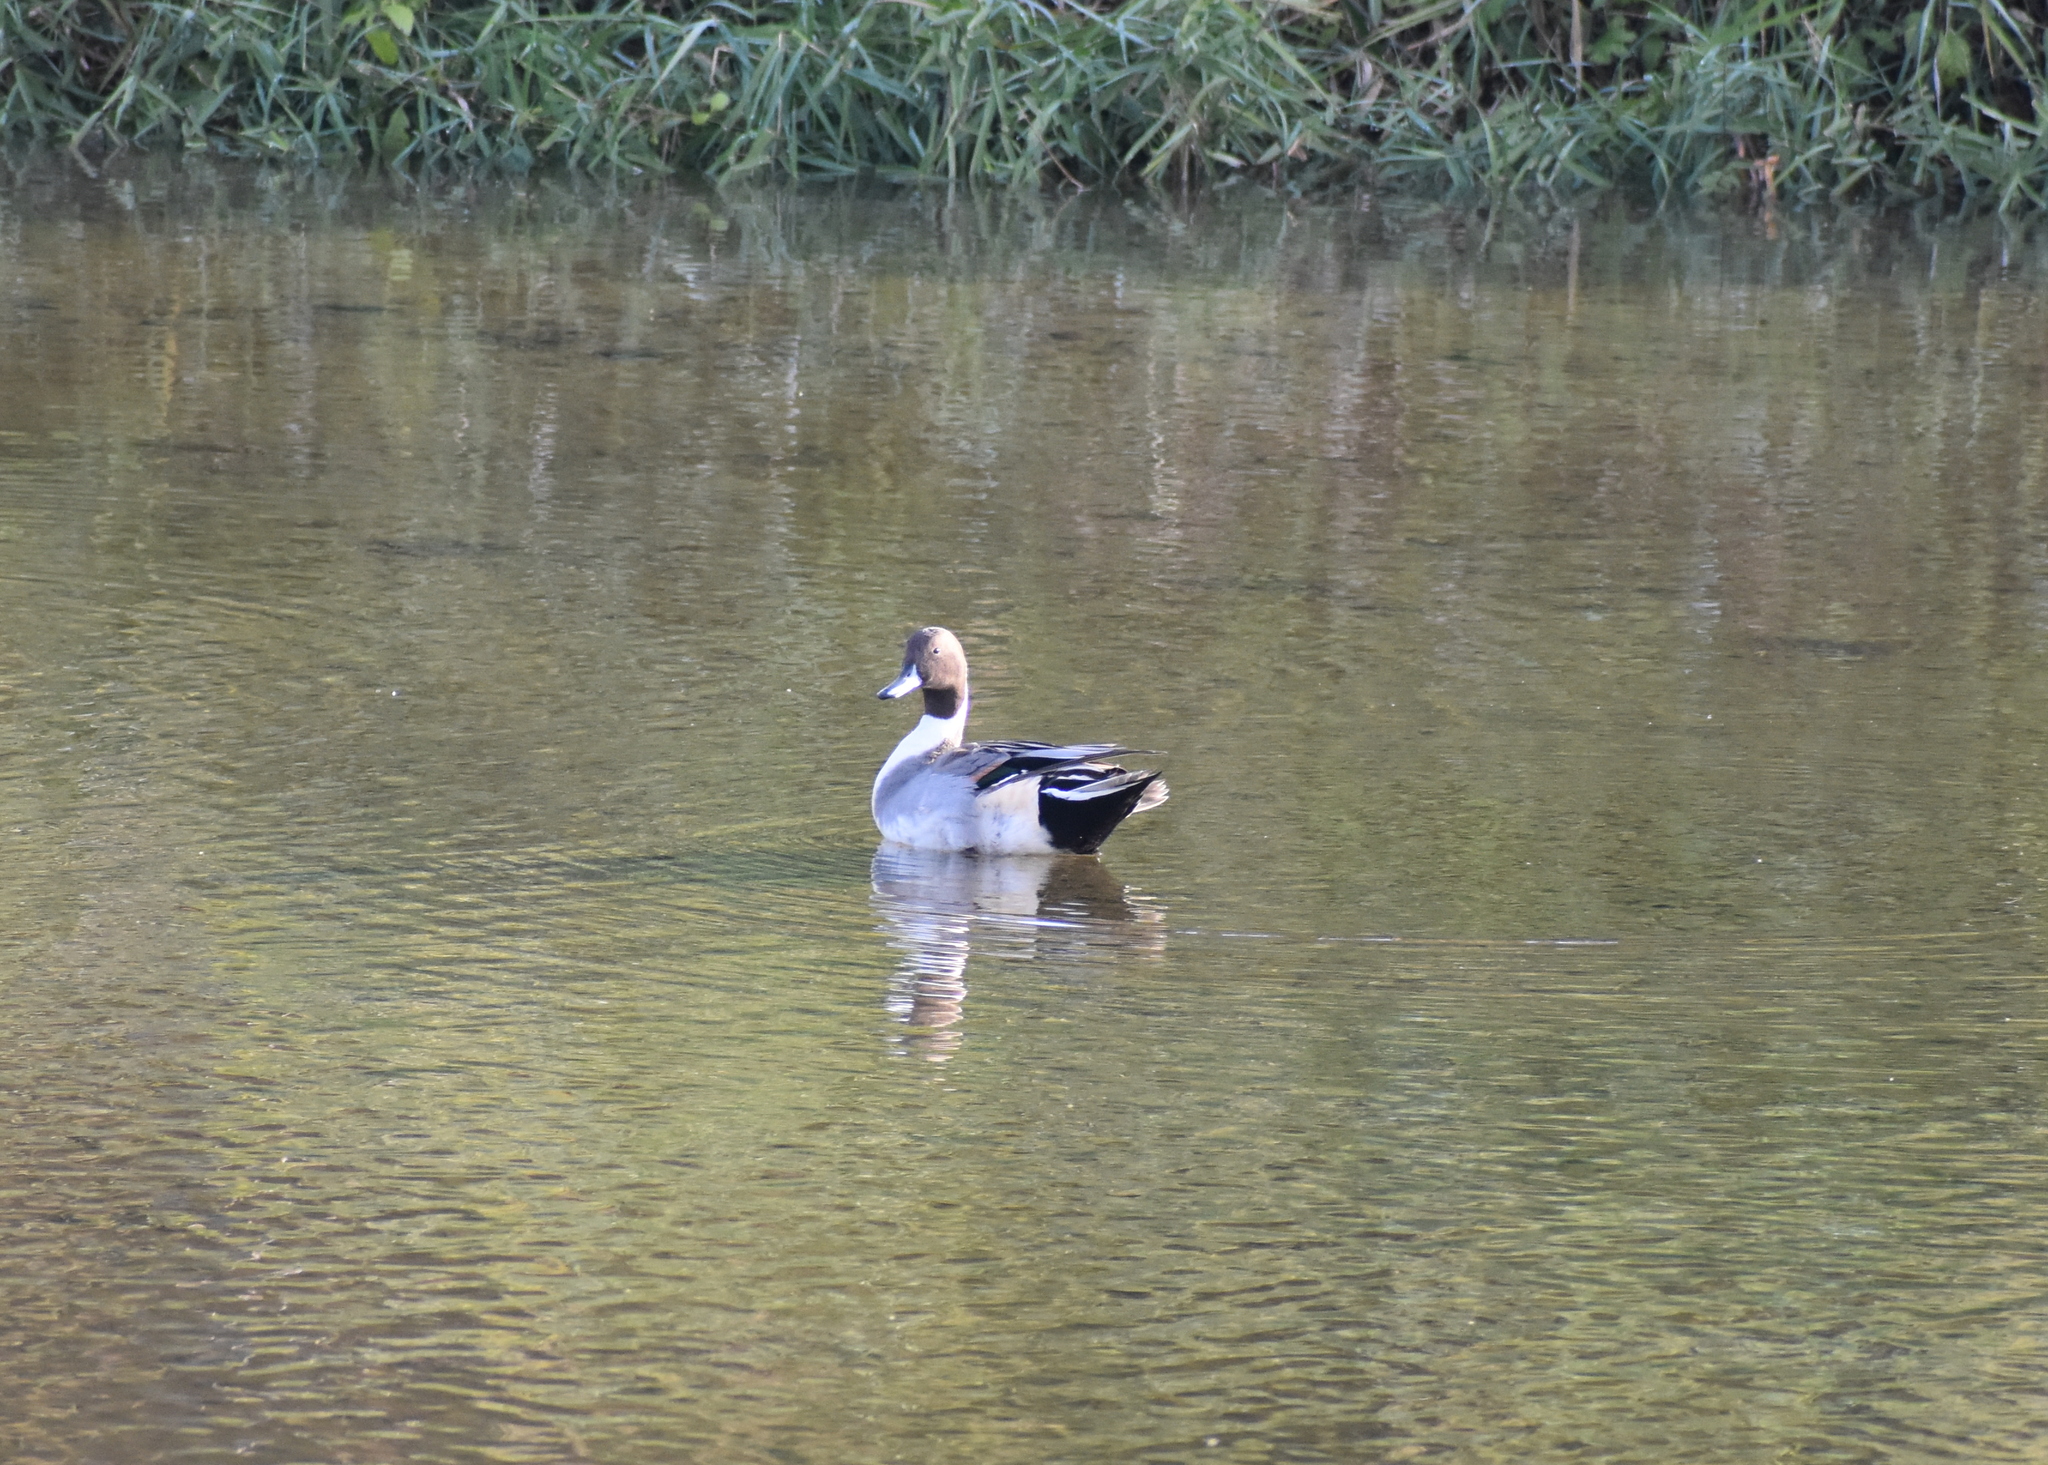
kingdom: Animalia
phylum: Chordata
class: Aves
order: Anseriformes
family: Anatidae
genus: Anas
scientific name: Anas acuta
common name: Northern pintail
